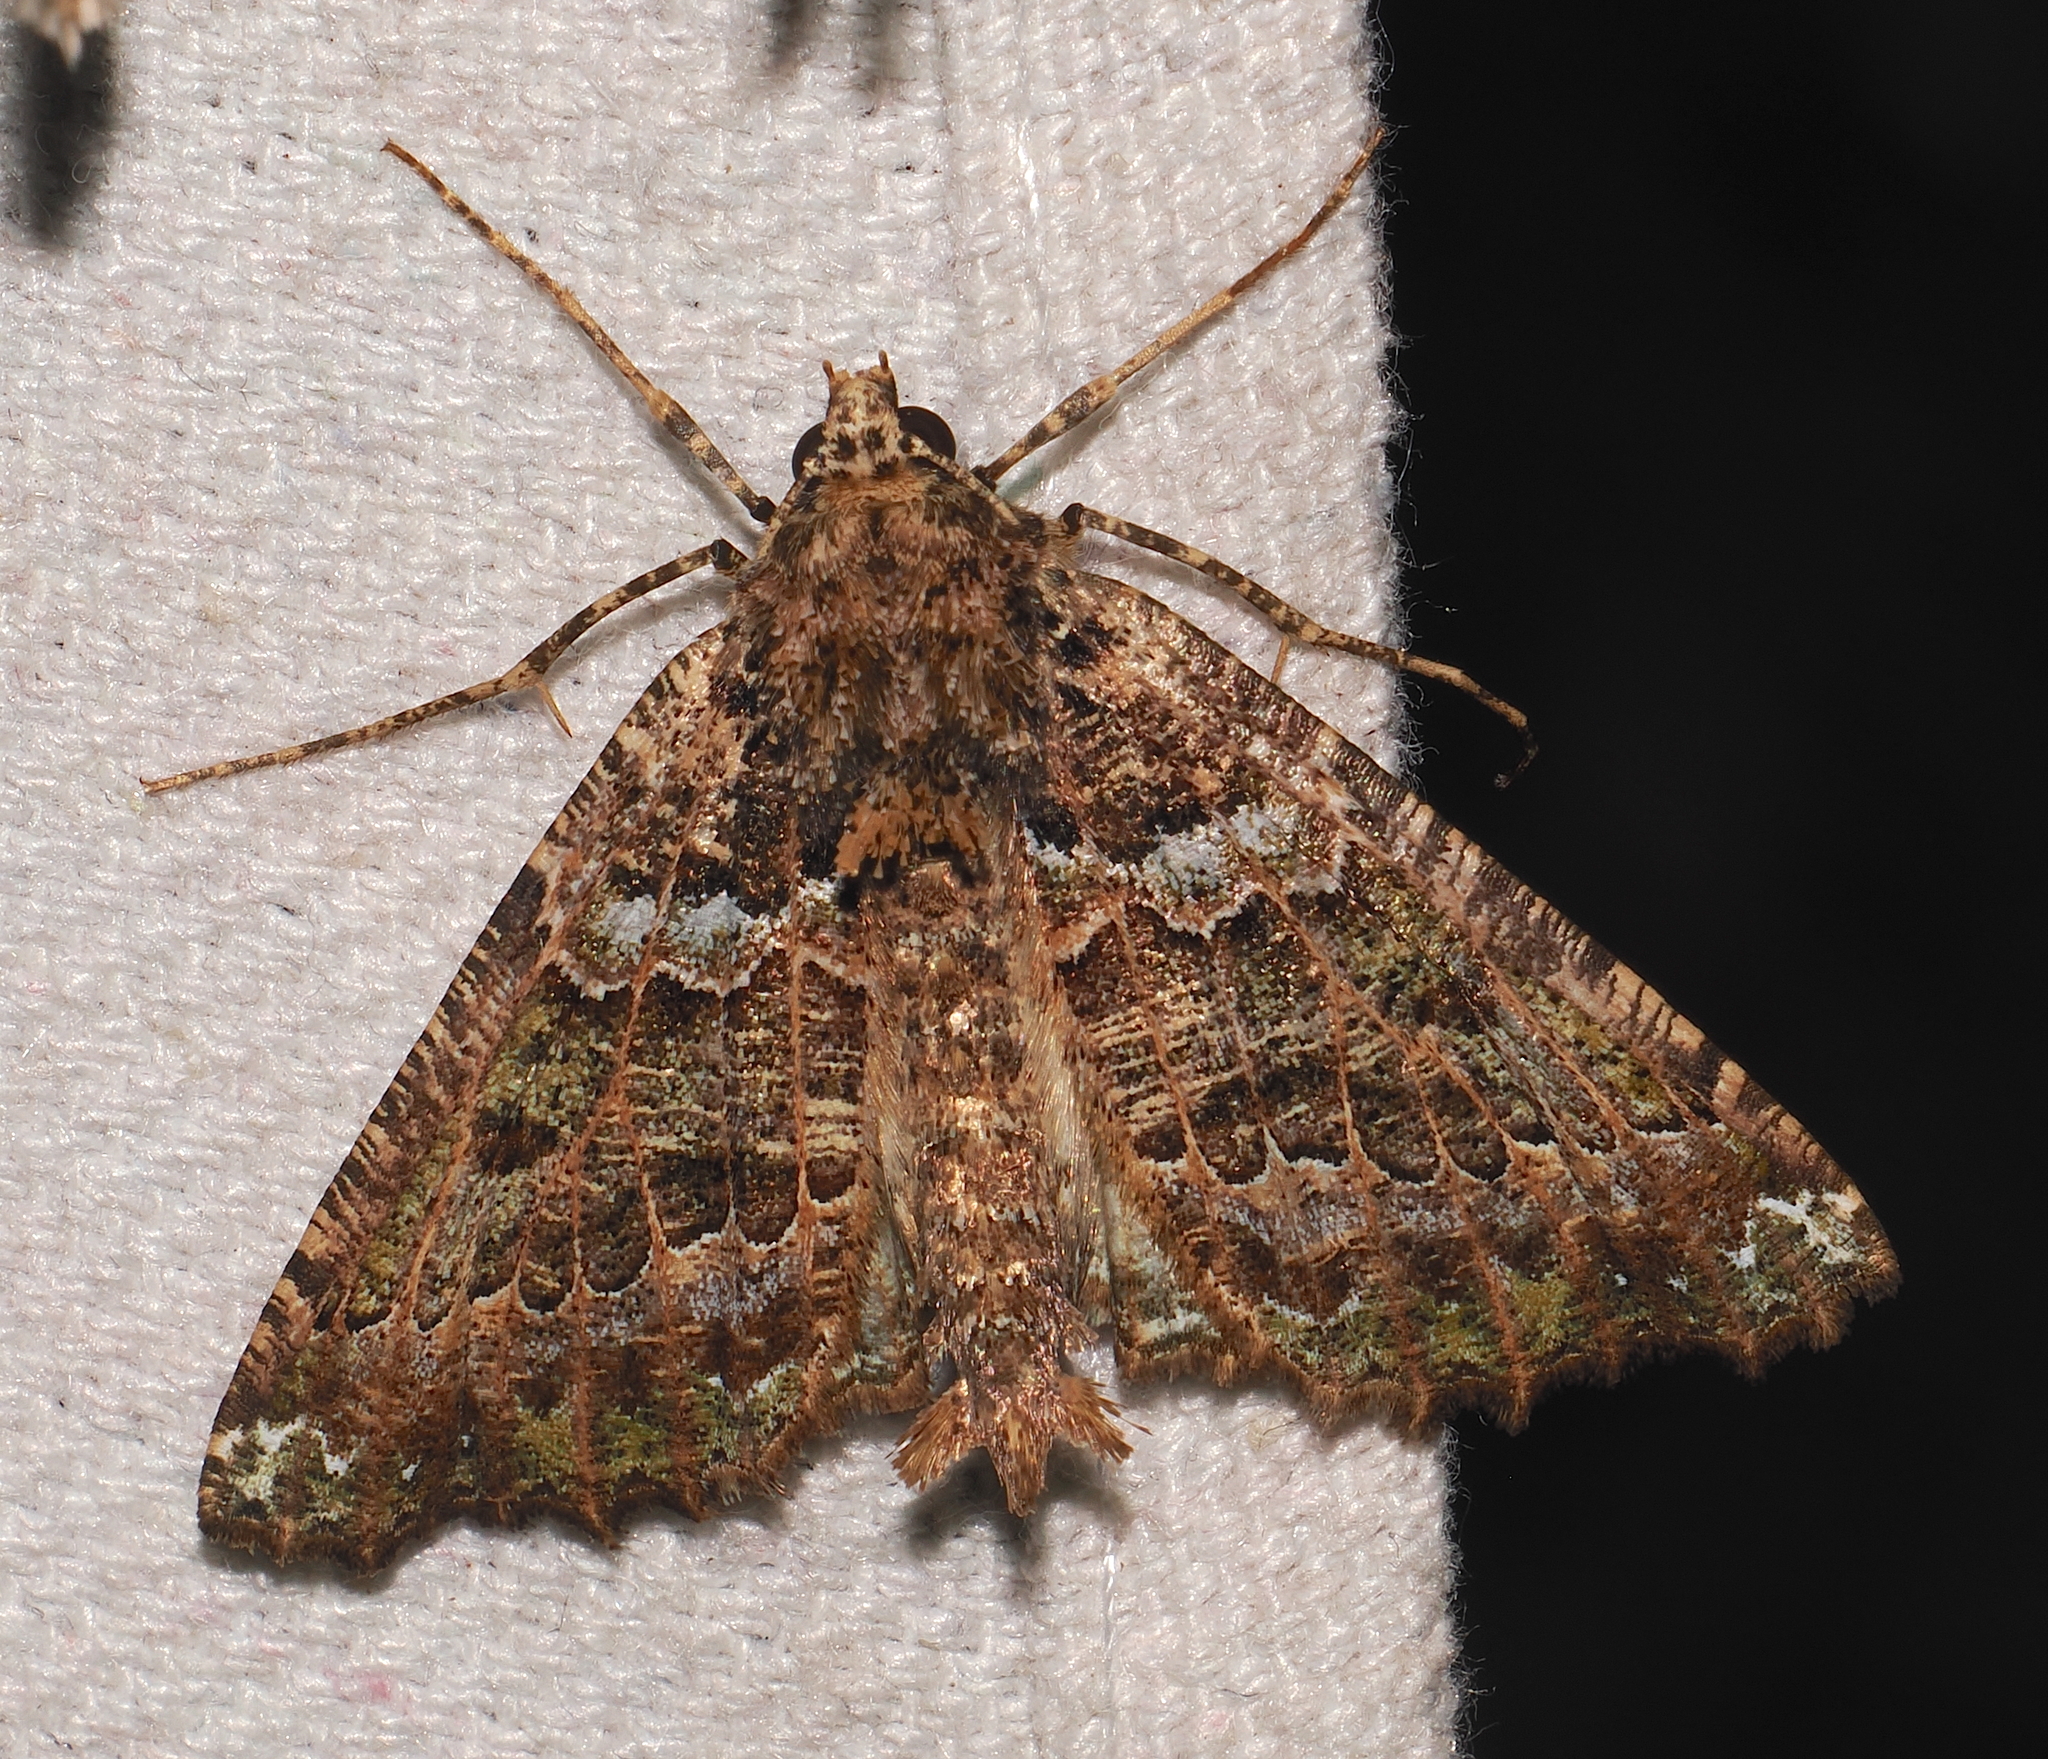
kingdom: Animalia
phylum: Arthropoda
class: Insecta
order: Lepidoptera
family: Geometridae
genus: Aragua
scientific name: Aragua bistonaria
